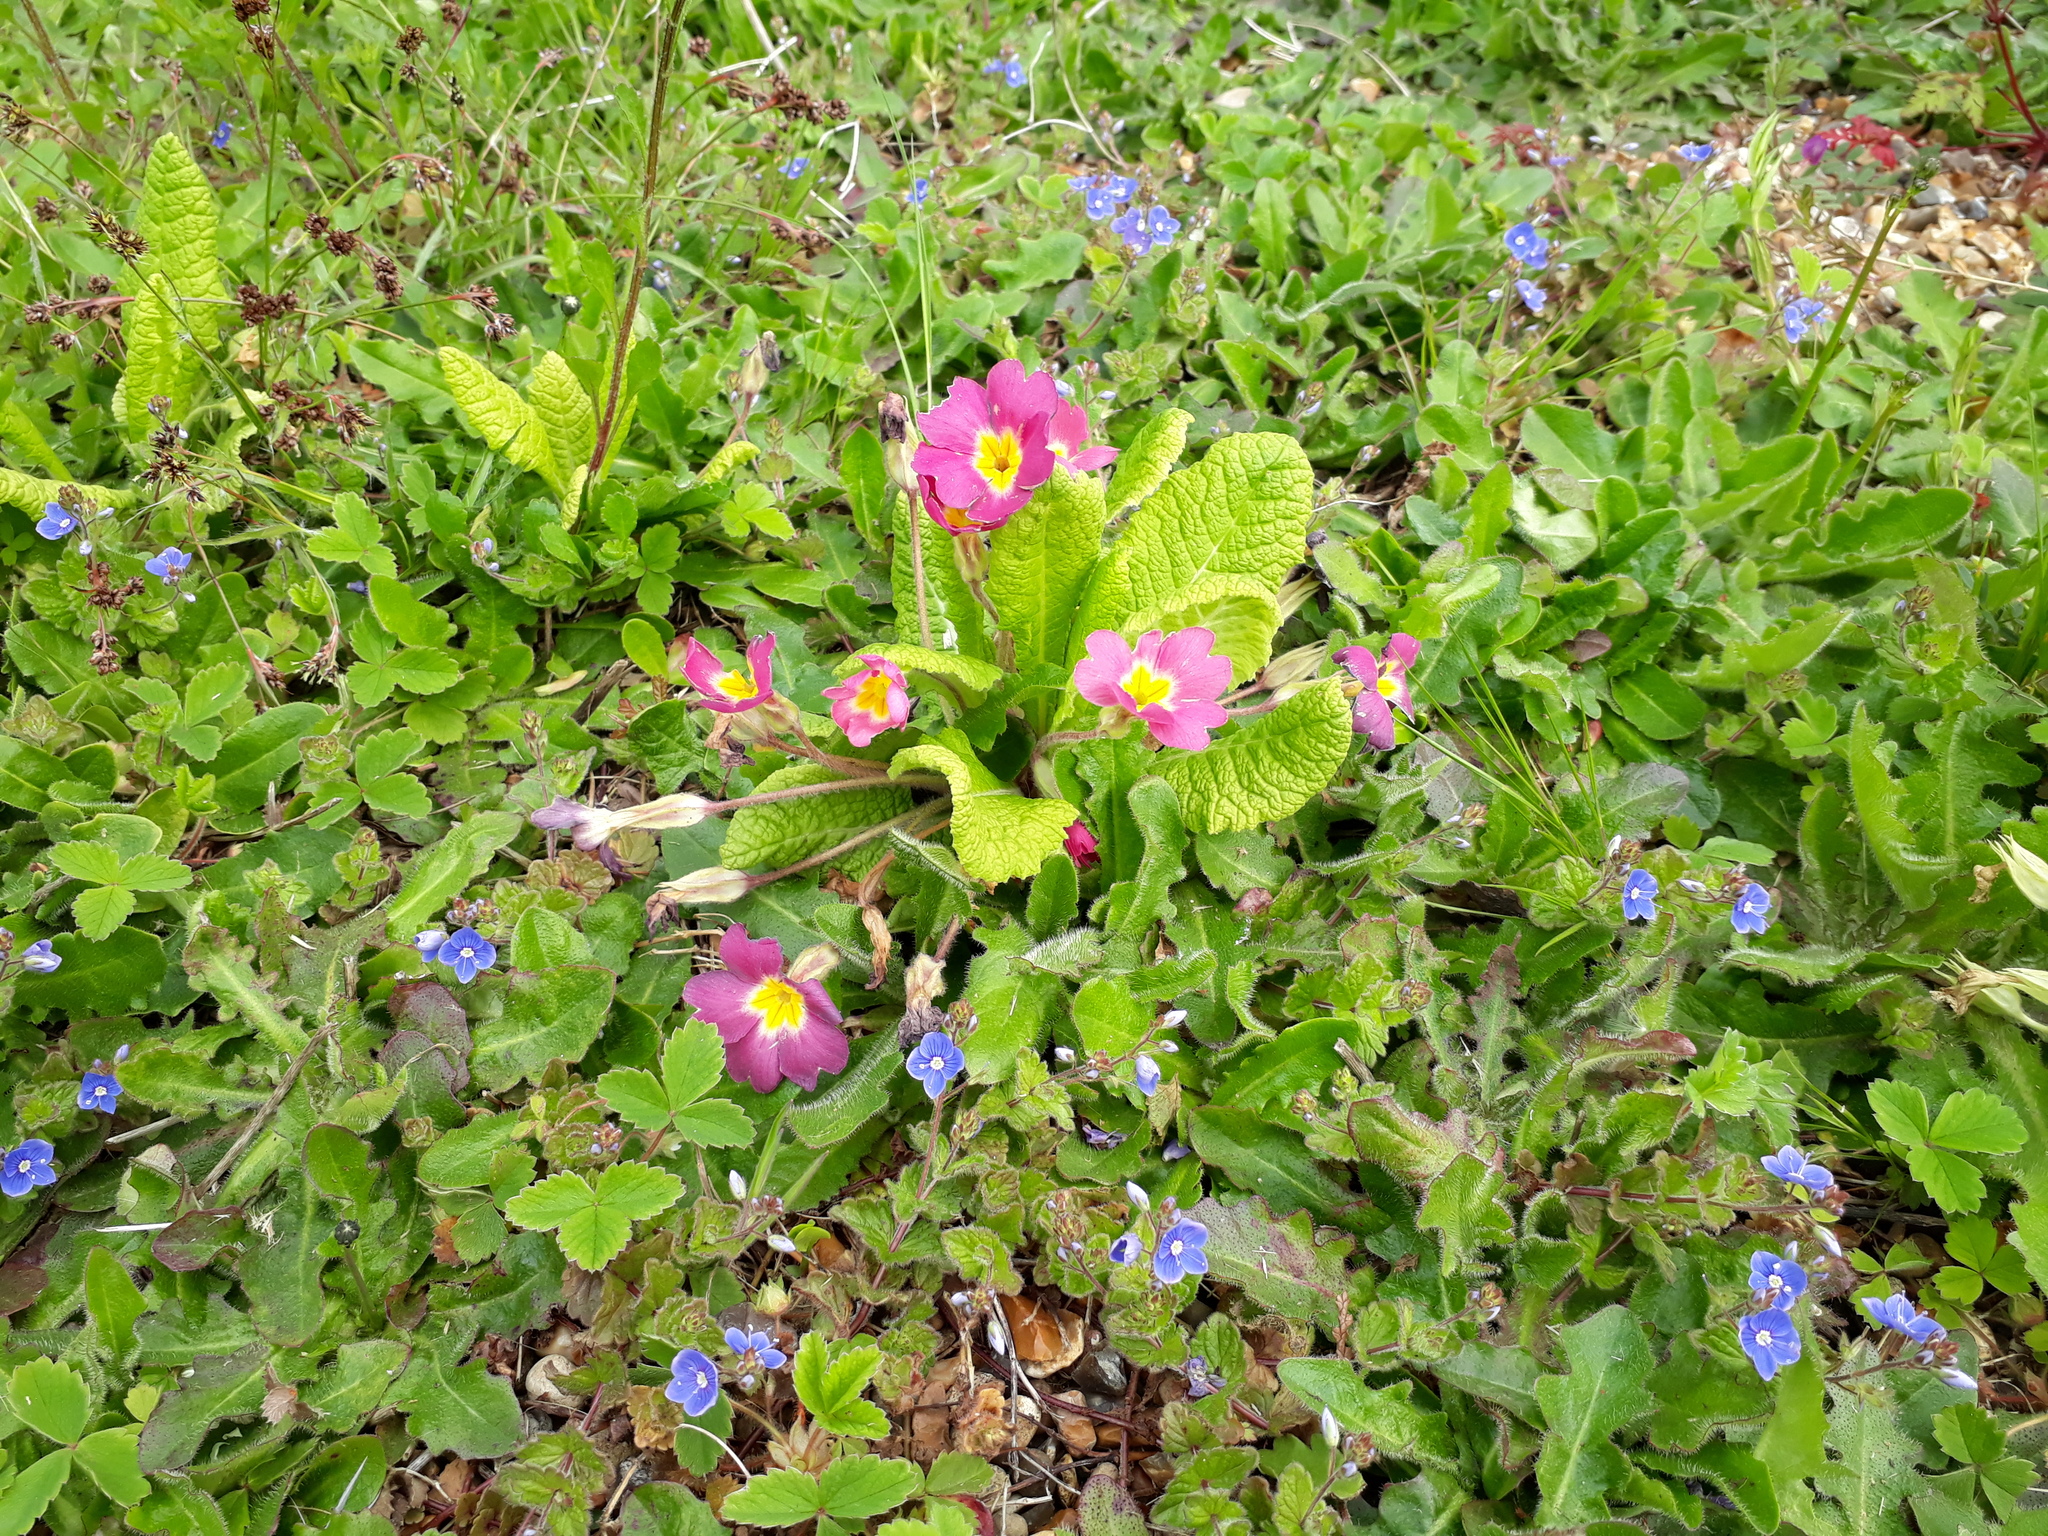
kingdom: Plantae
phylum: Tracheophyta
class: Magnoliopsida
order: Ericales
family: Primulaceae
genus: Primula
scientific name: Primula vulgaris
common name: Primrose
